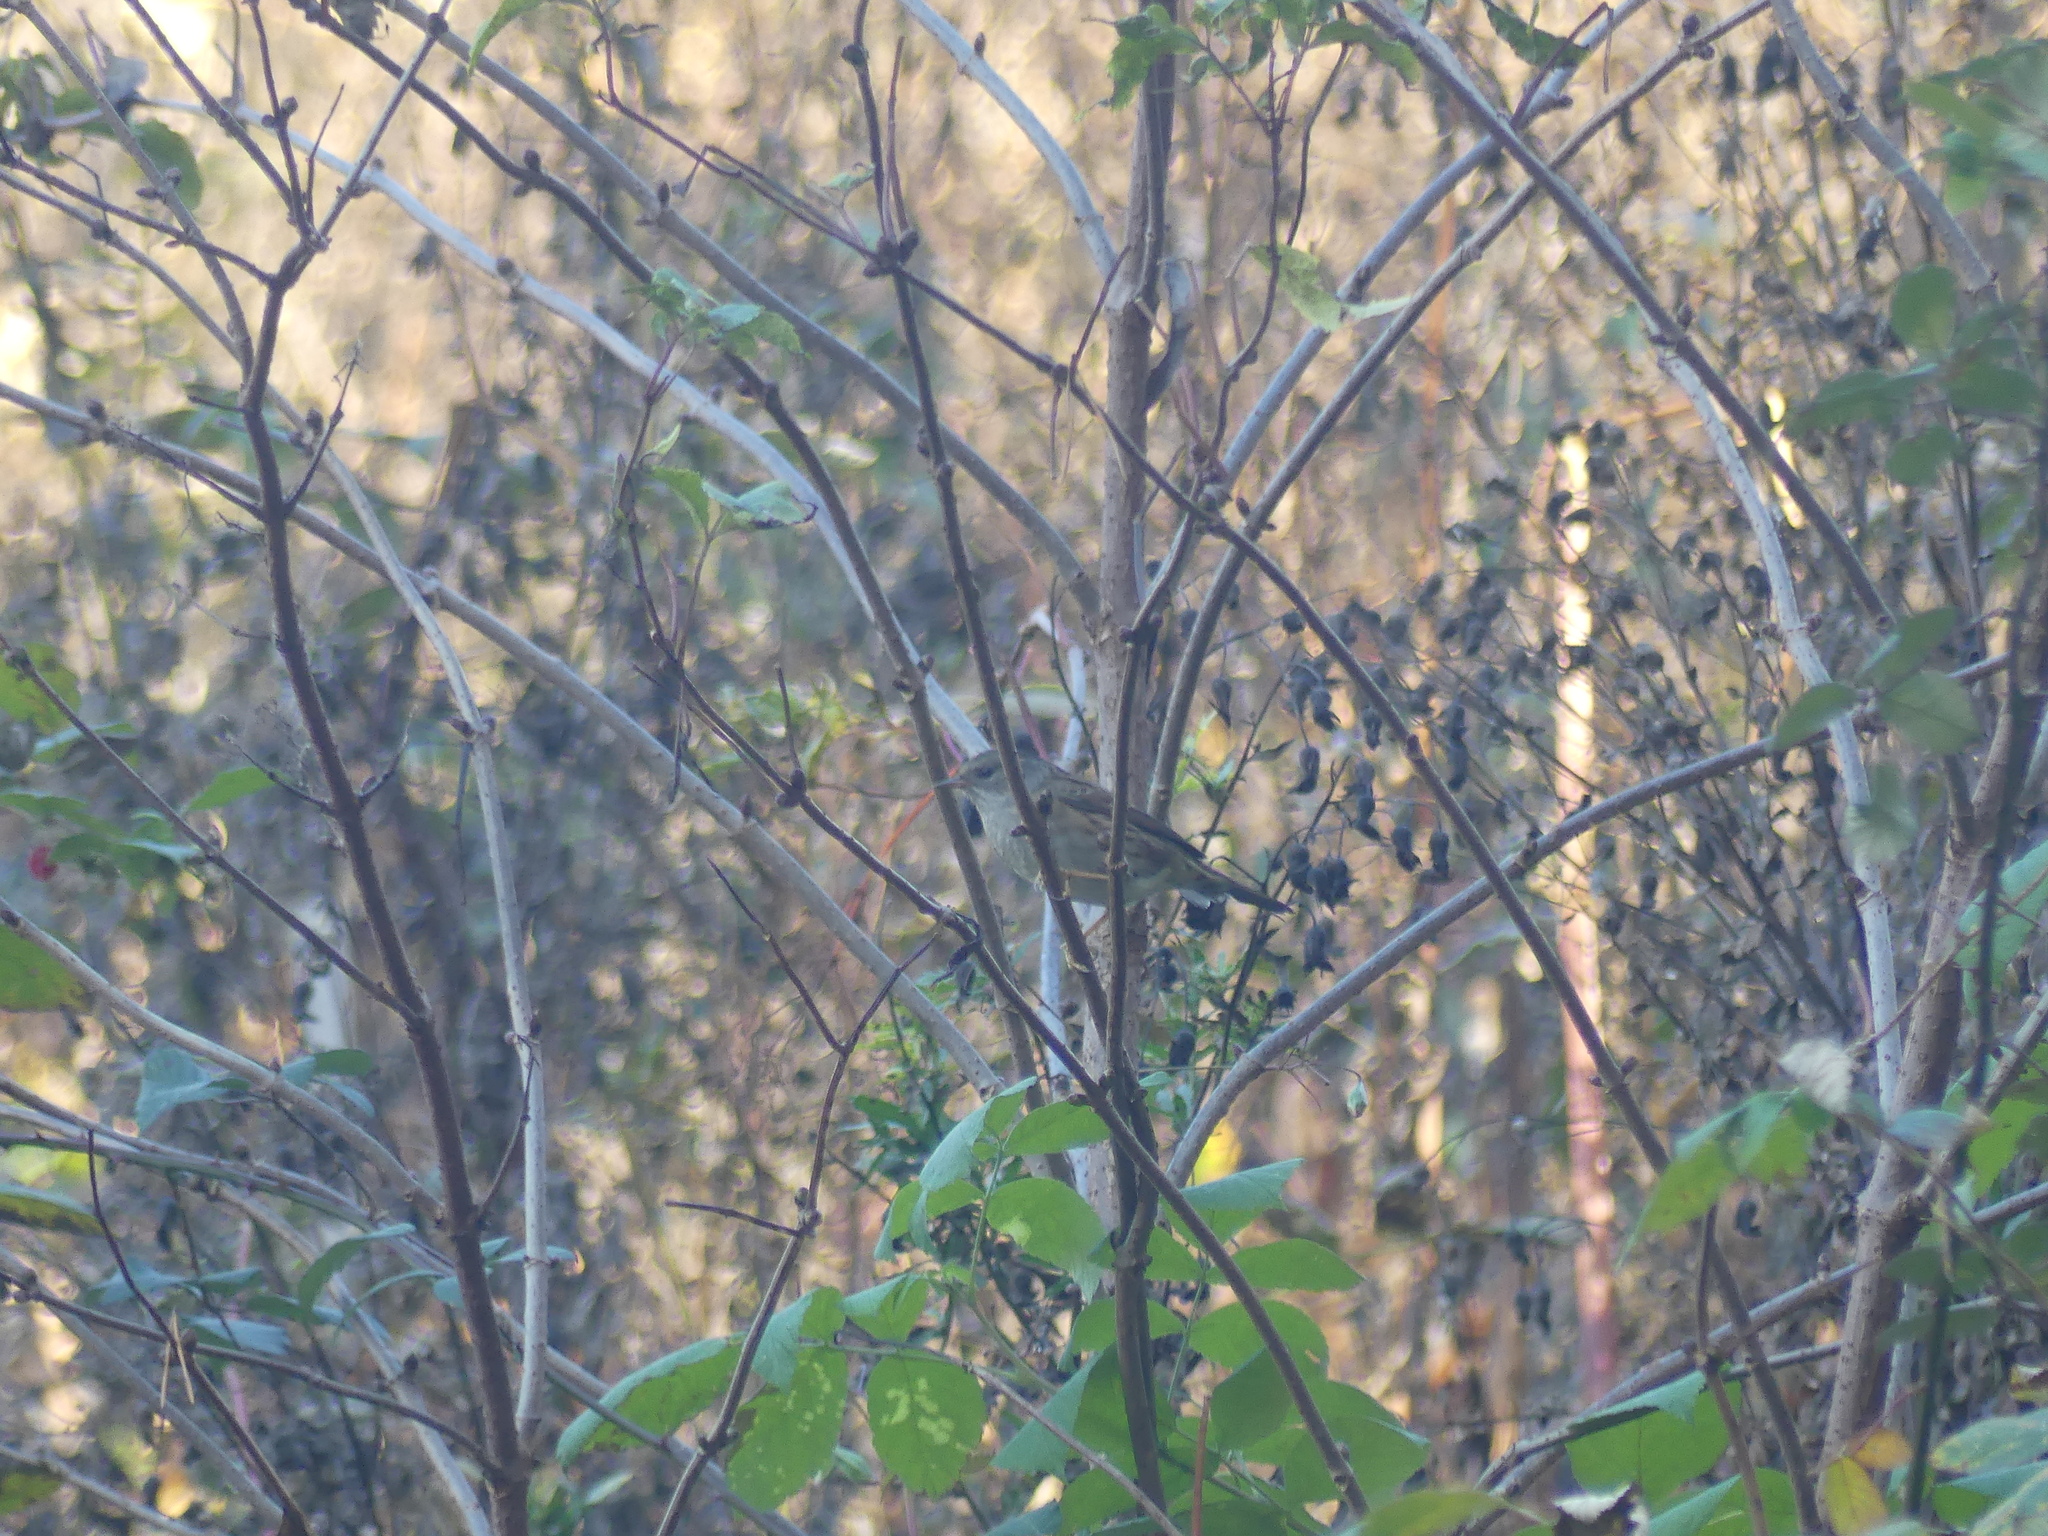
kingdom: Animalia
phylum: Chordata
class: Aves
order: Passeriformes
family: Prunellidae
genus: Prunella
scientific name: Prunella modularis
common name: Dunnock
